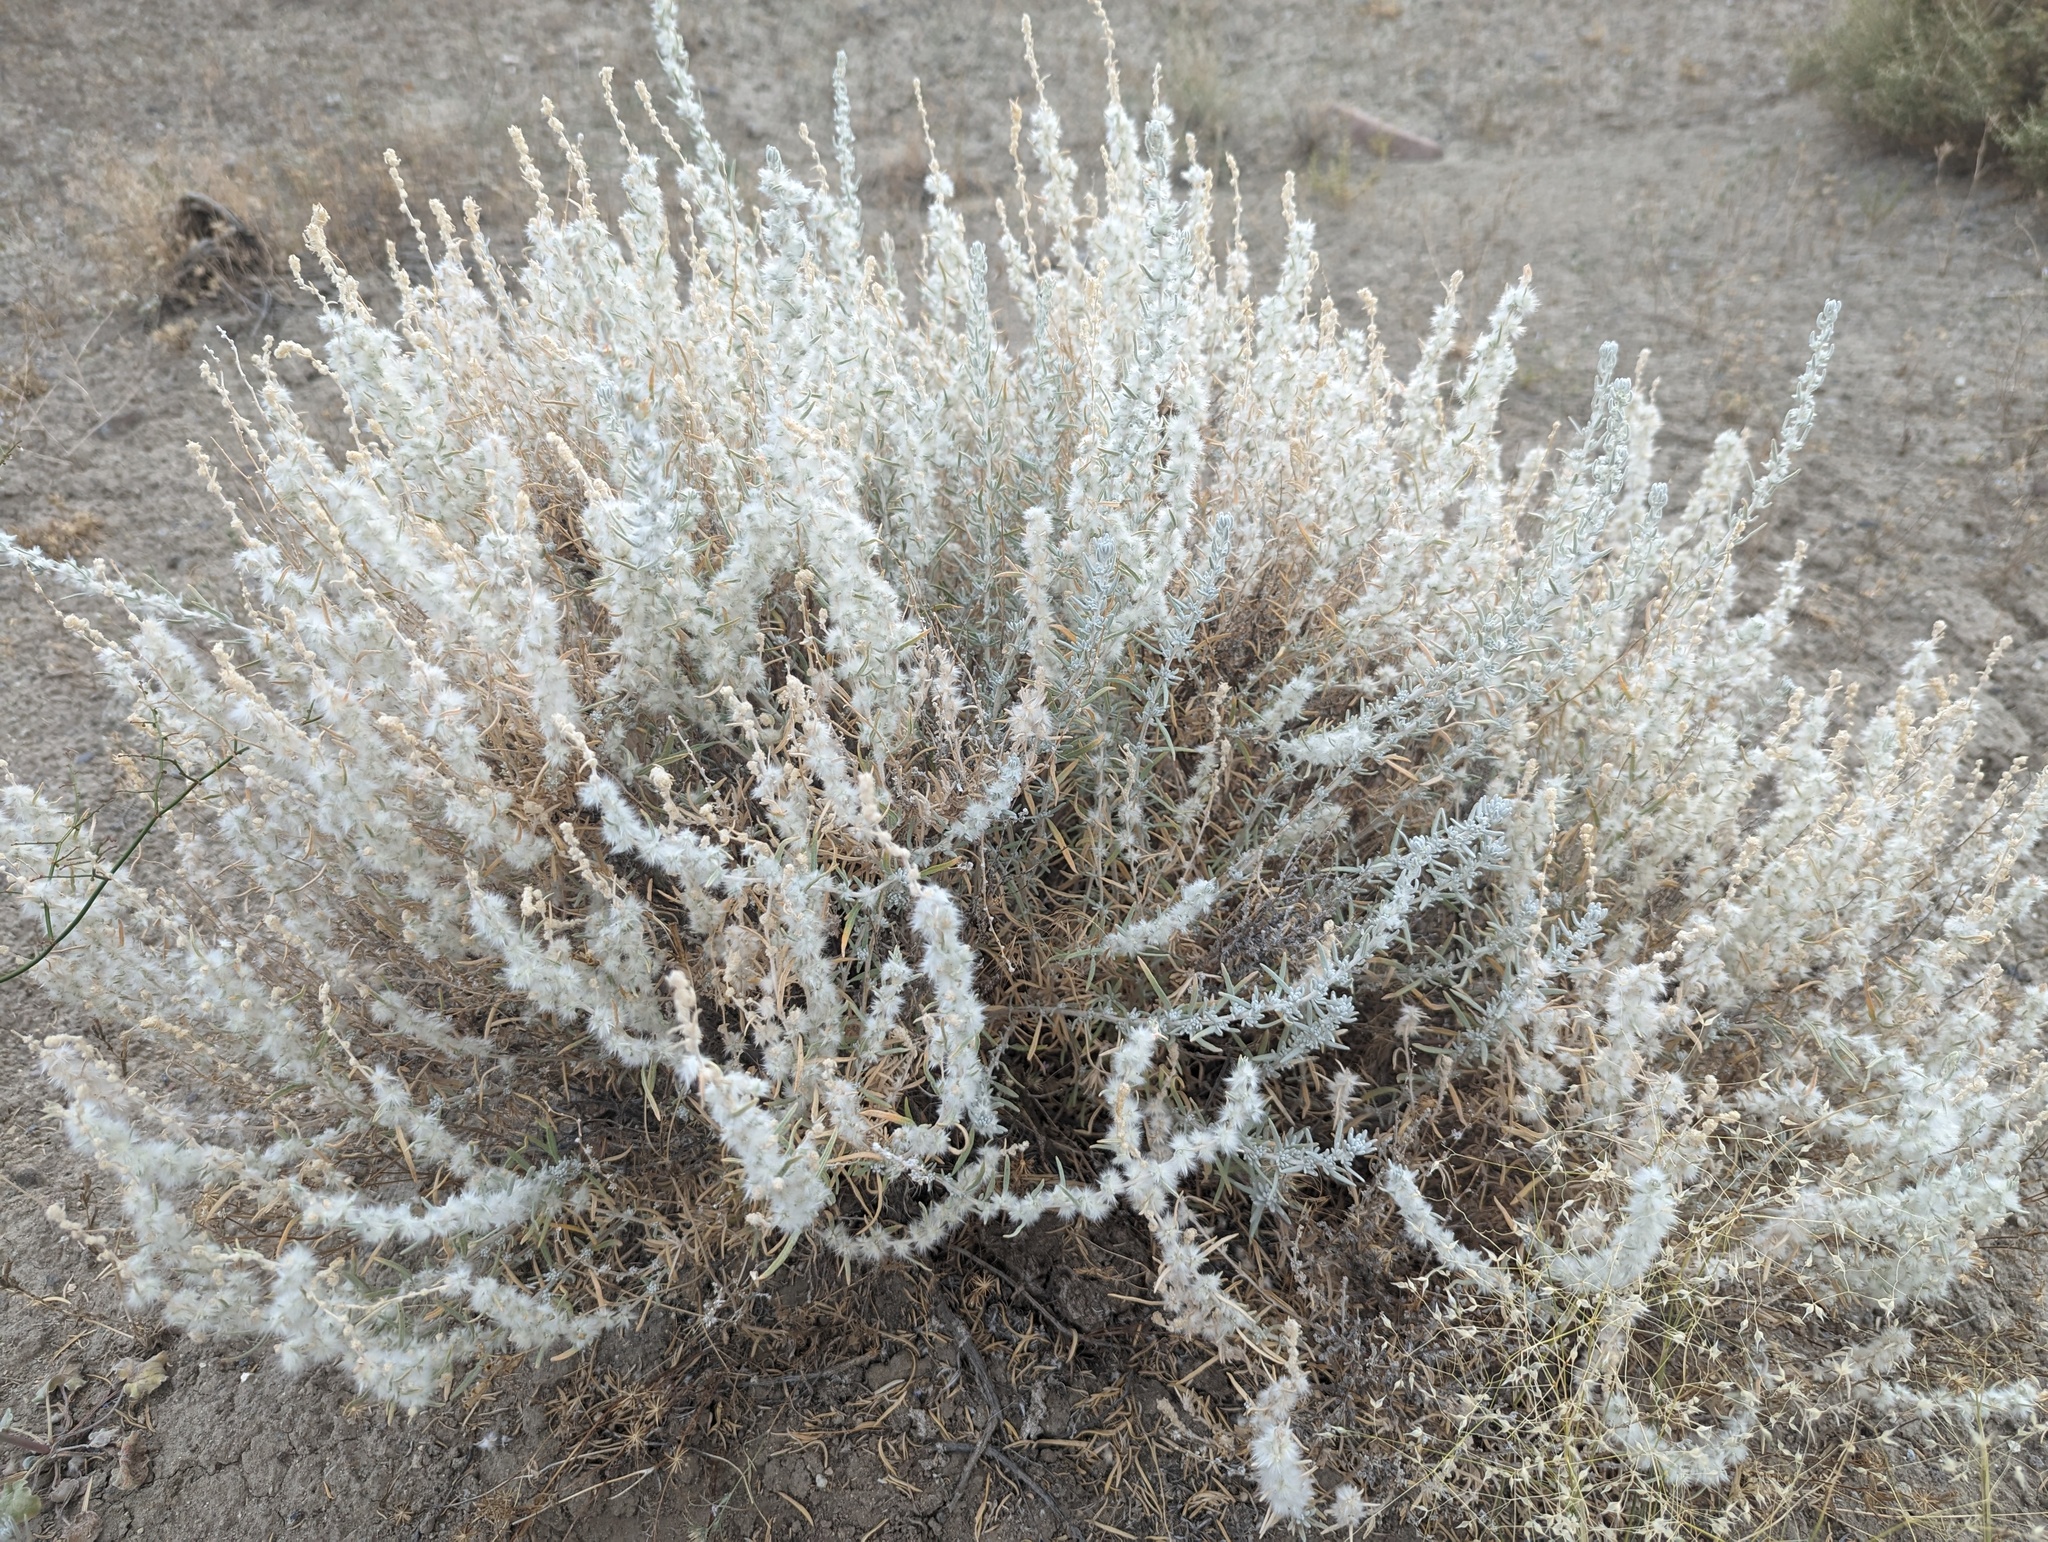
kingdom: Plantae
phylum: Tracheophyta
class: Magnoliopsida
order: Caryophyllales
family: Amaranthaceae
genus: Krascheninnikovia
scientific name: Krascheninnikovia lanata
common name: Winterfat
